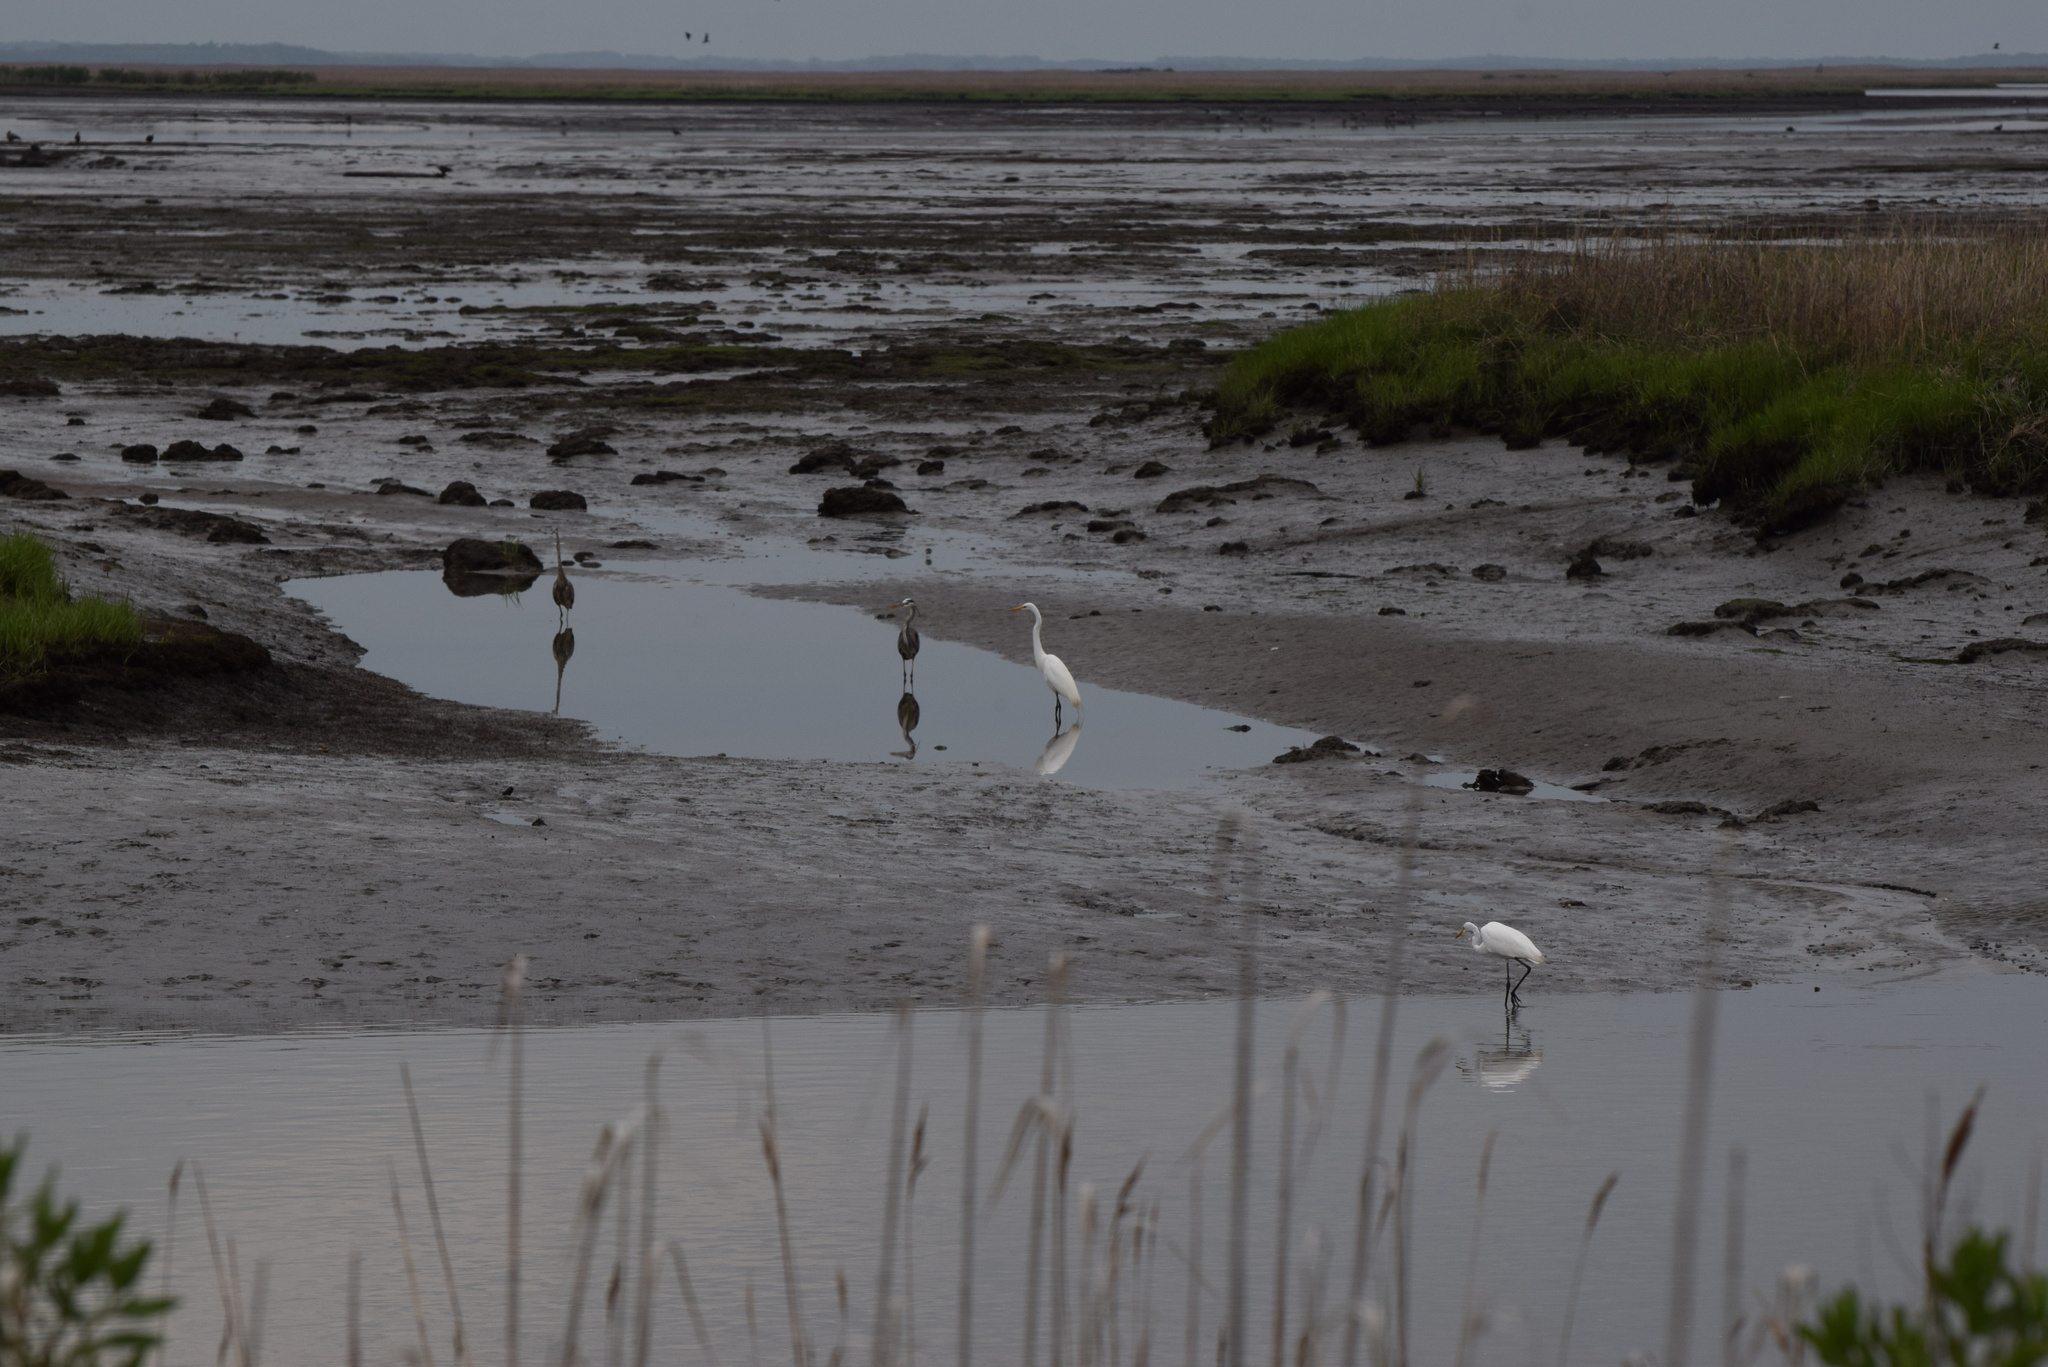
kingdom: Animalia
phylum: Chordata
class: Aves
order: Pelecaniformes
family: Ardeidae
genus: Ardea
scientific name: Ardea herodias
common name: Great blue heron
